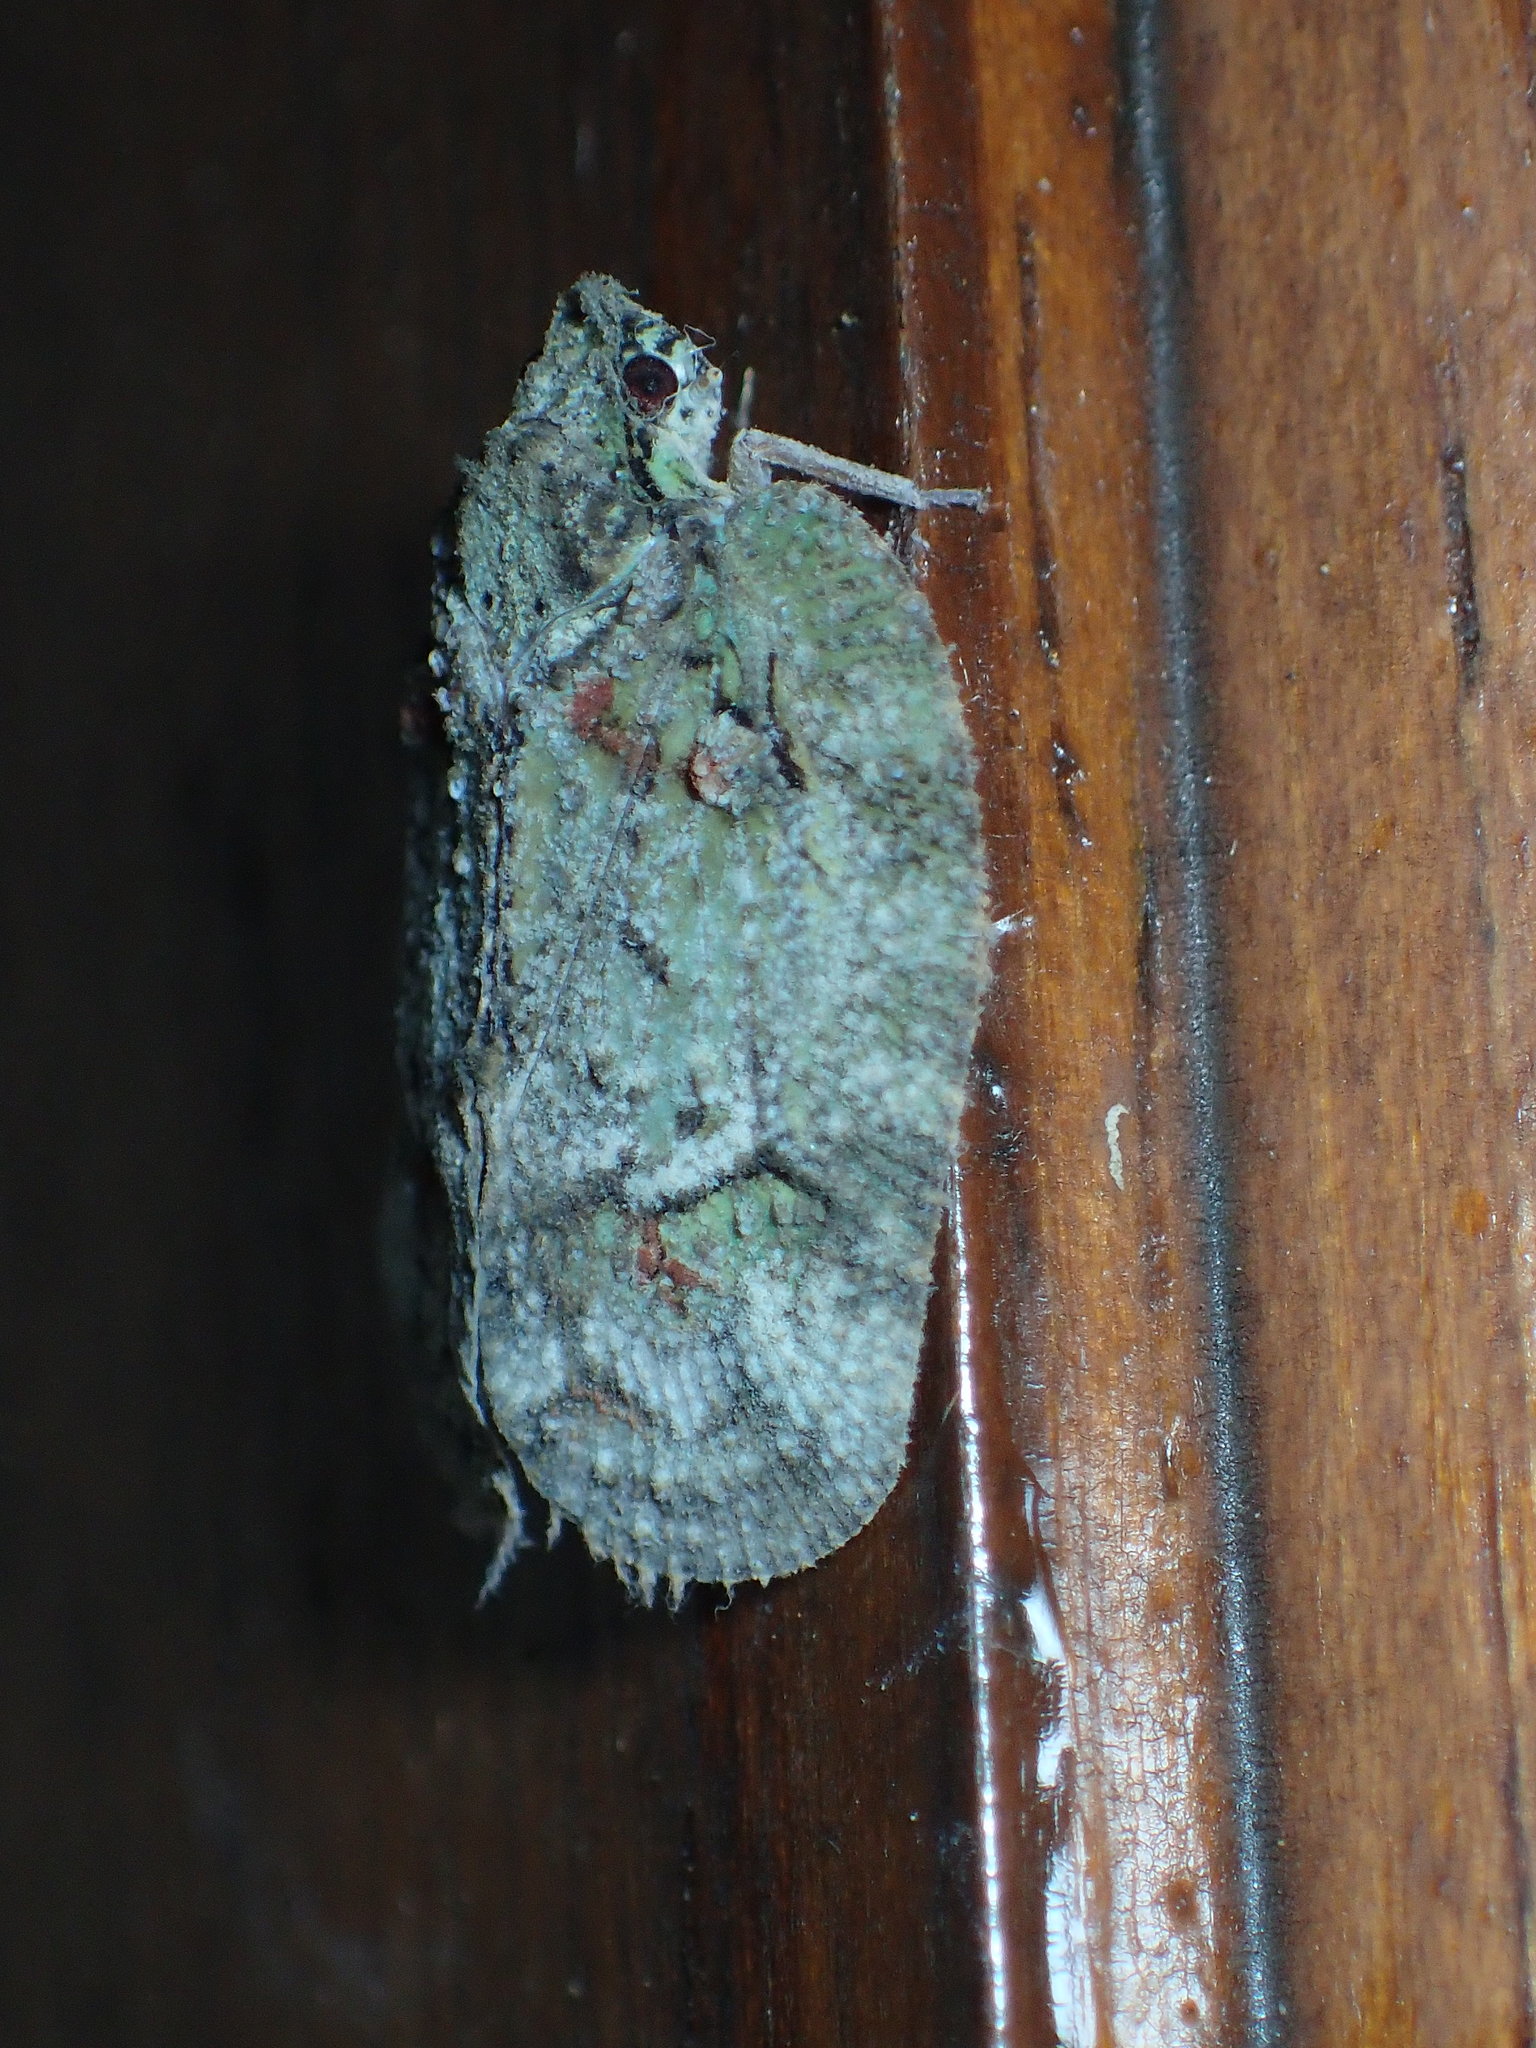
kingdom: Animalia
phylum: Arthropoda
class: Insecta
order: Hemiptera
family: Flatidae
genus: Flataloides
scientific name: Flataloides scabrosa
